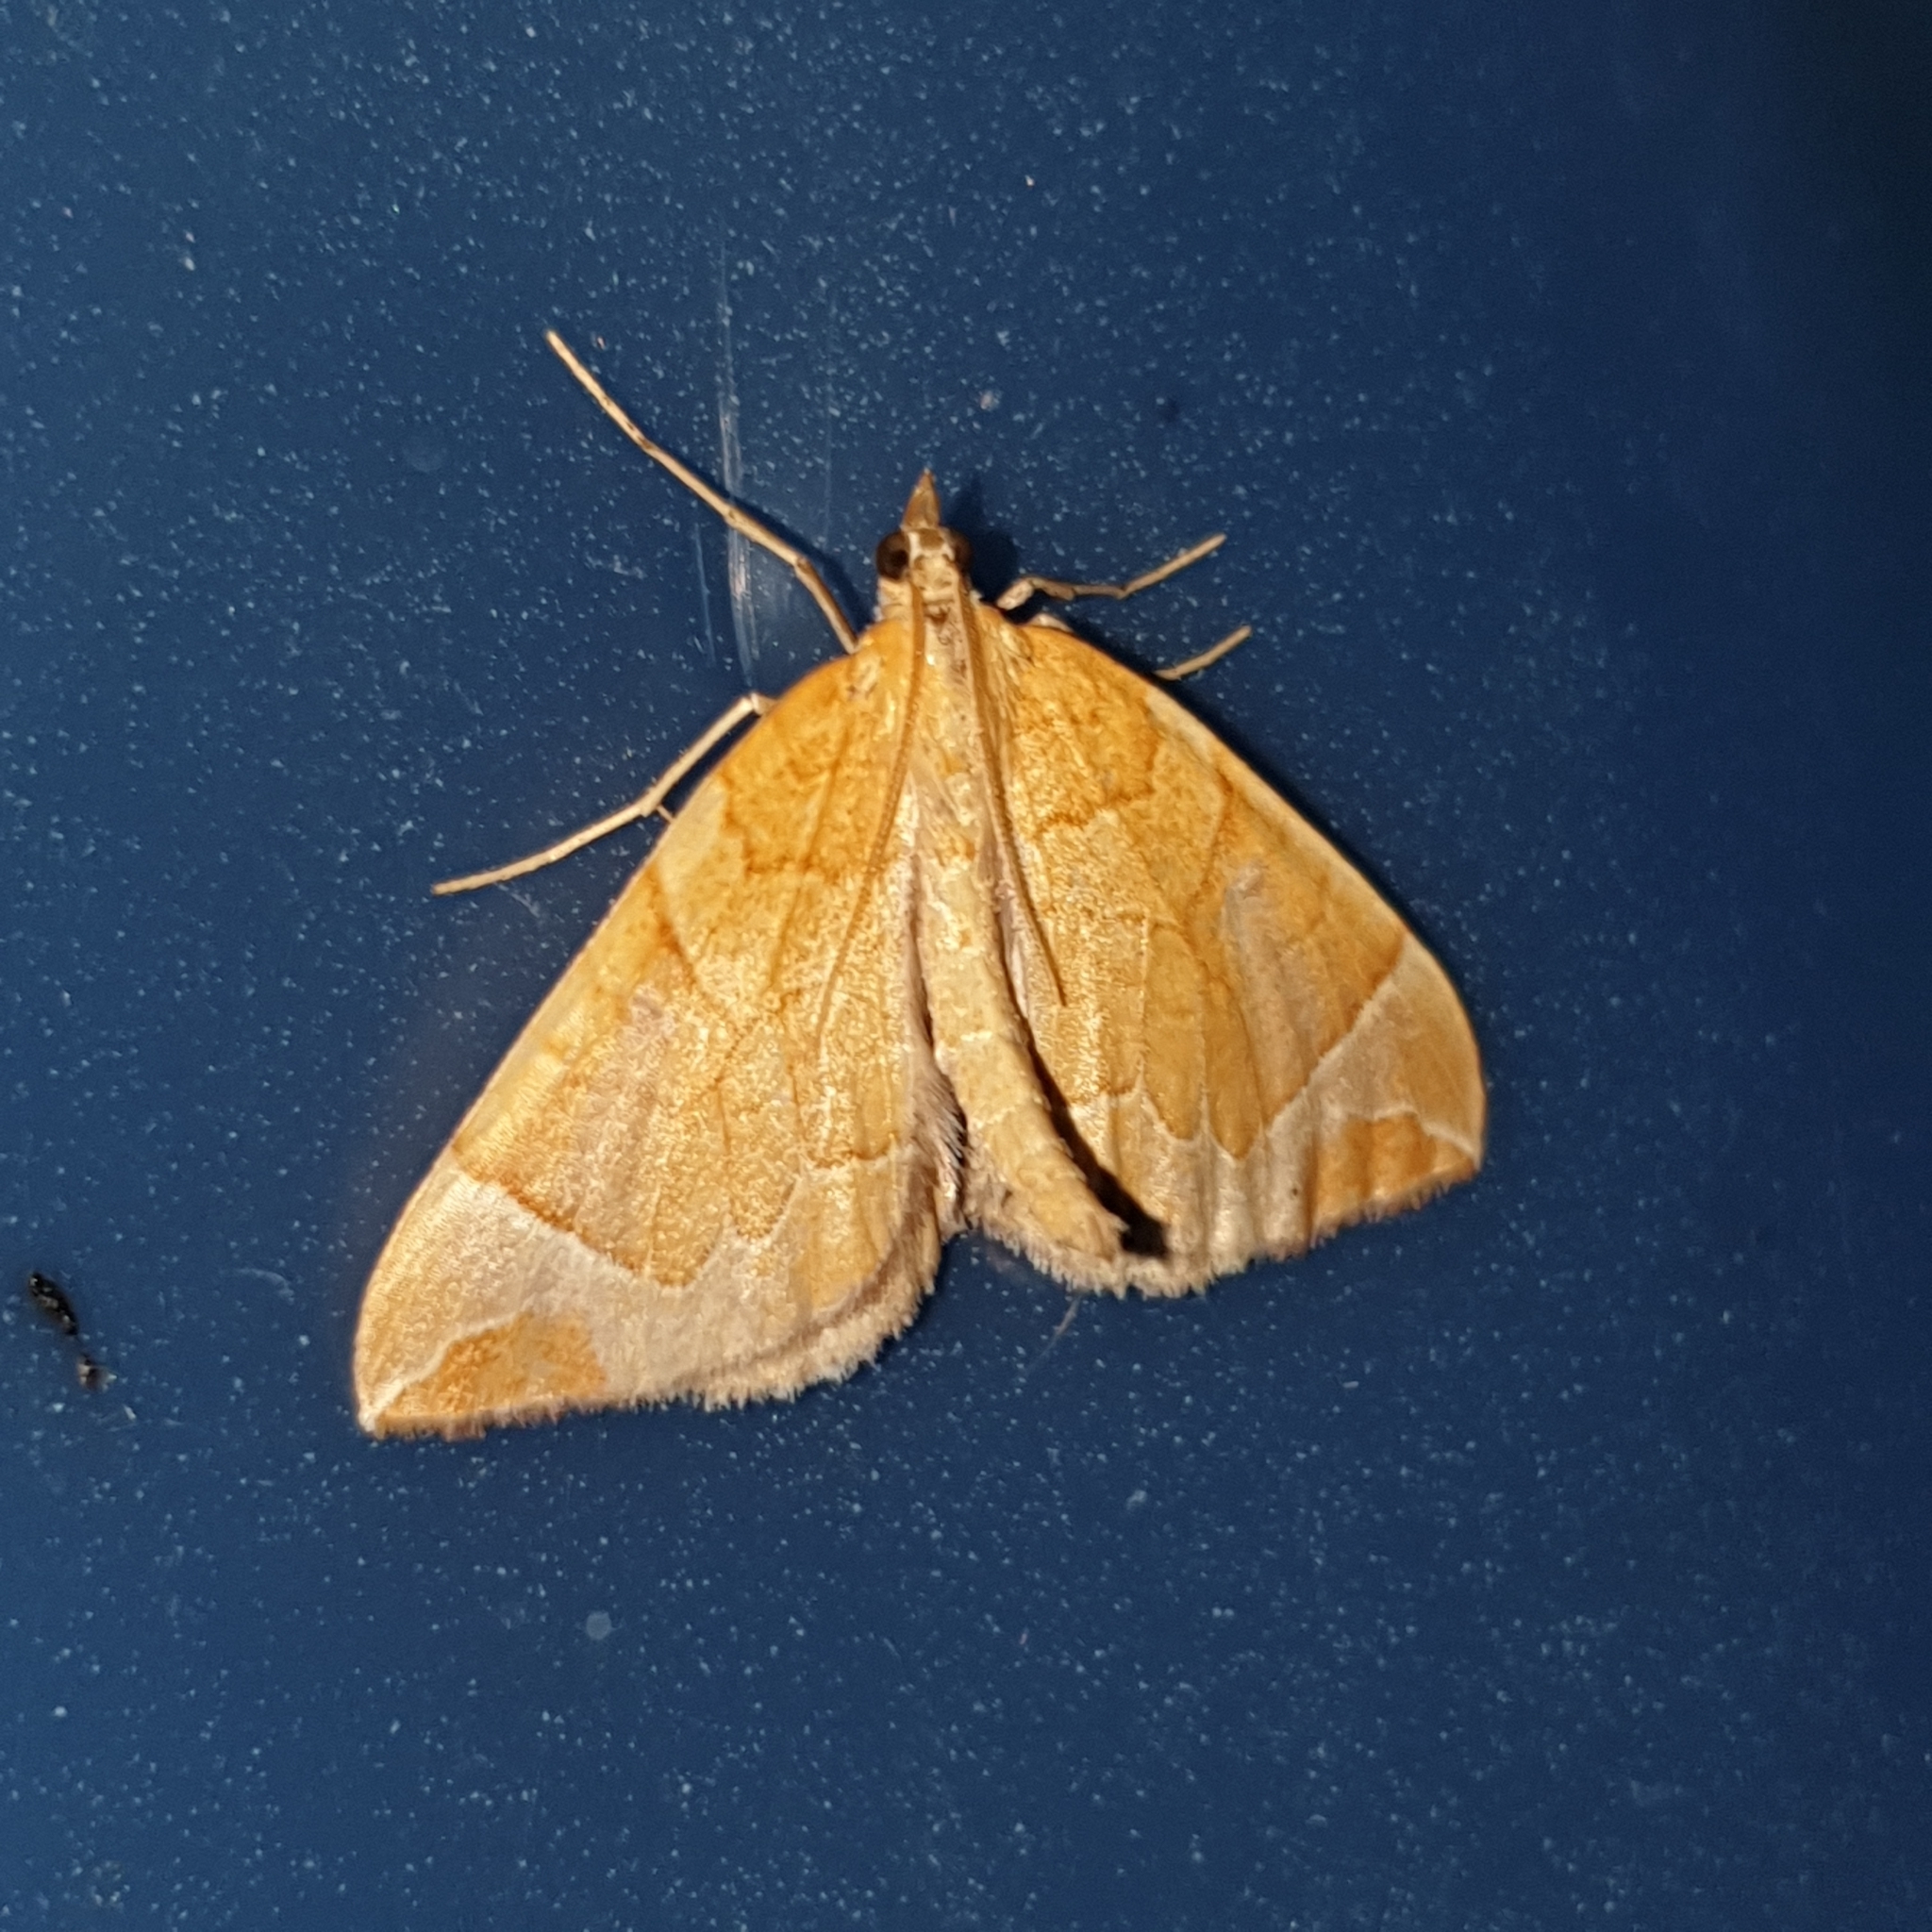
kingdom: Animalia
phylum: Arthropoda
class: Insecta
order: Lepidoptera
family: Geometridae
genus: Eulithis
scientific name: Eulithis testata
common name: Chevron
